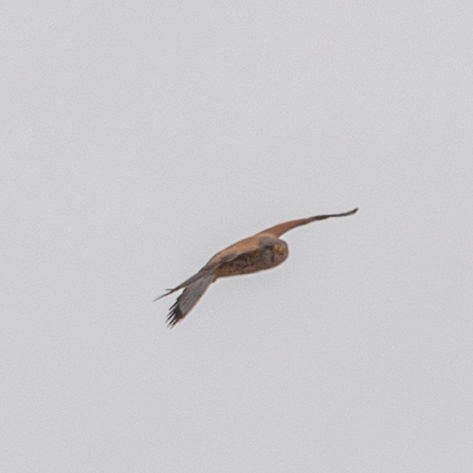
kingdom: Animalia
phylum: Chordata
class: Aves
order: Falconiformes
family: Falconidae
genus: Falco
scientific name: Falco tinnunculus
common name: Common kestrel
